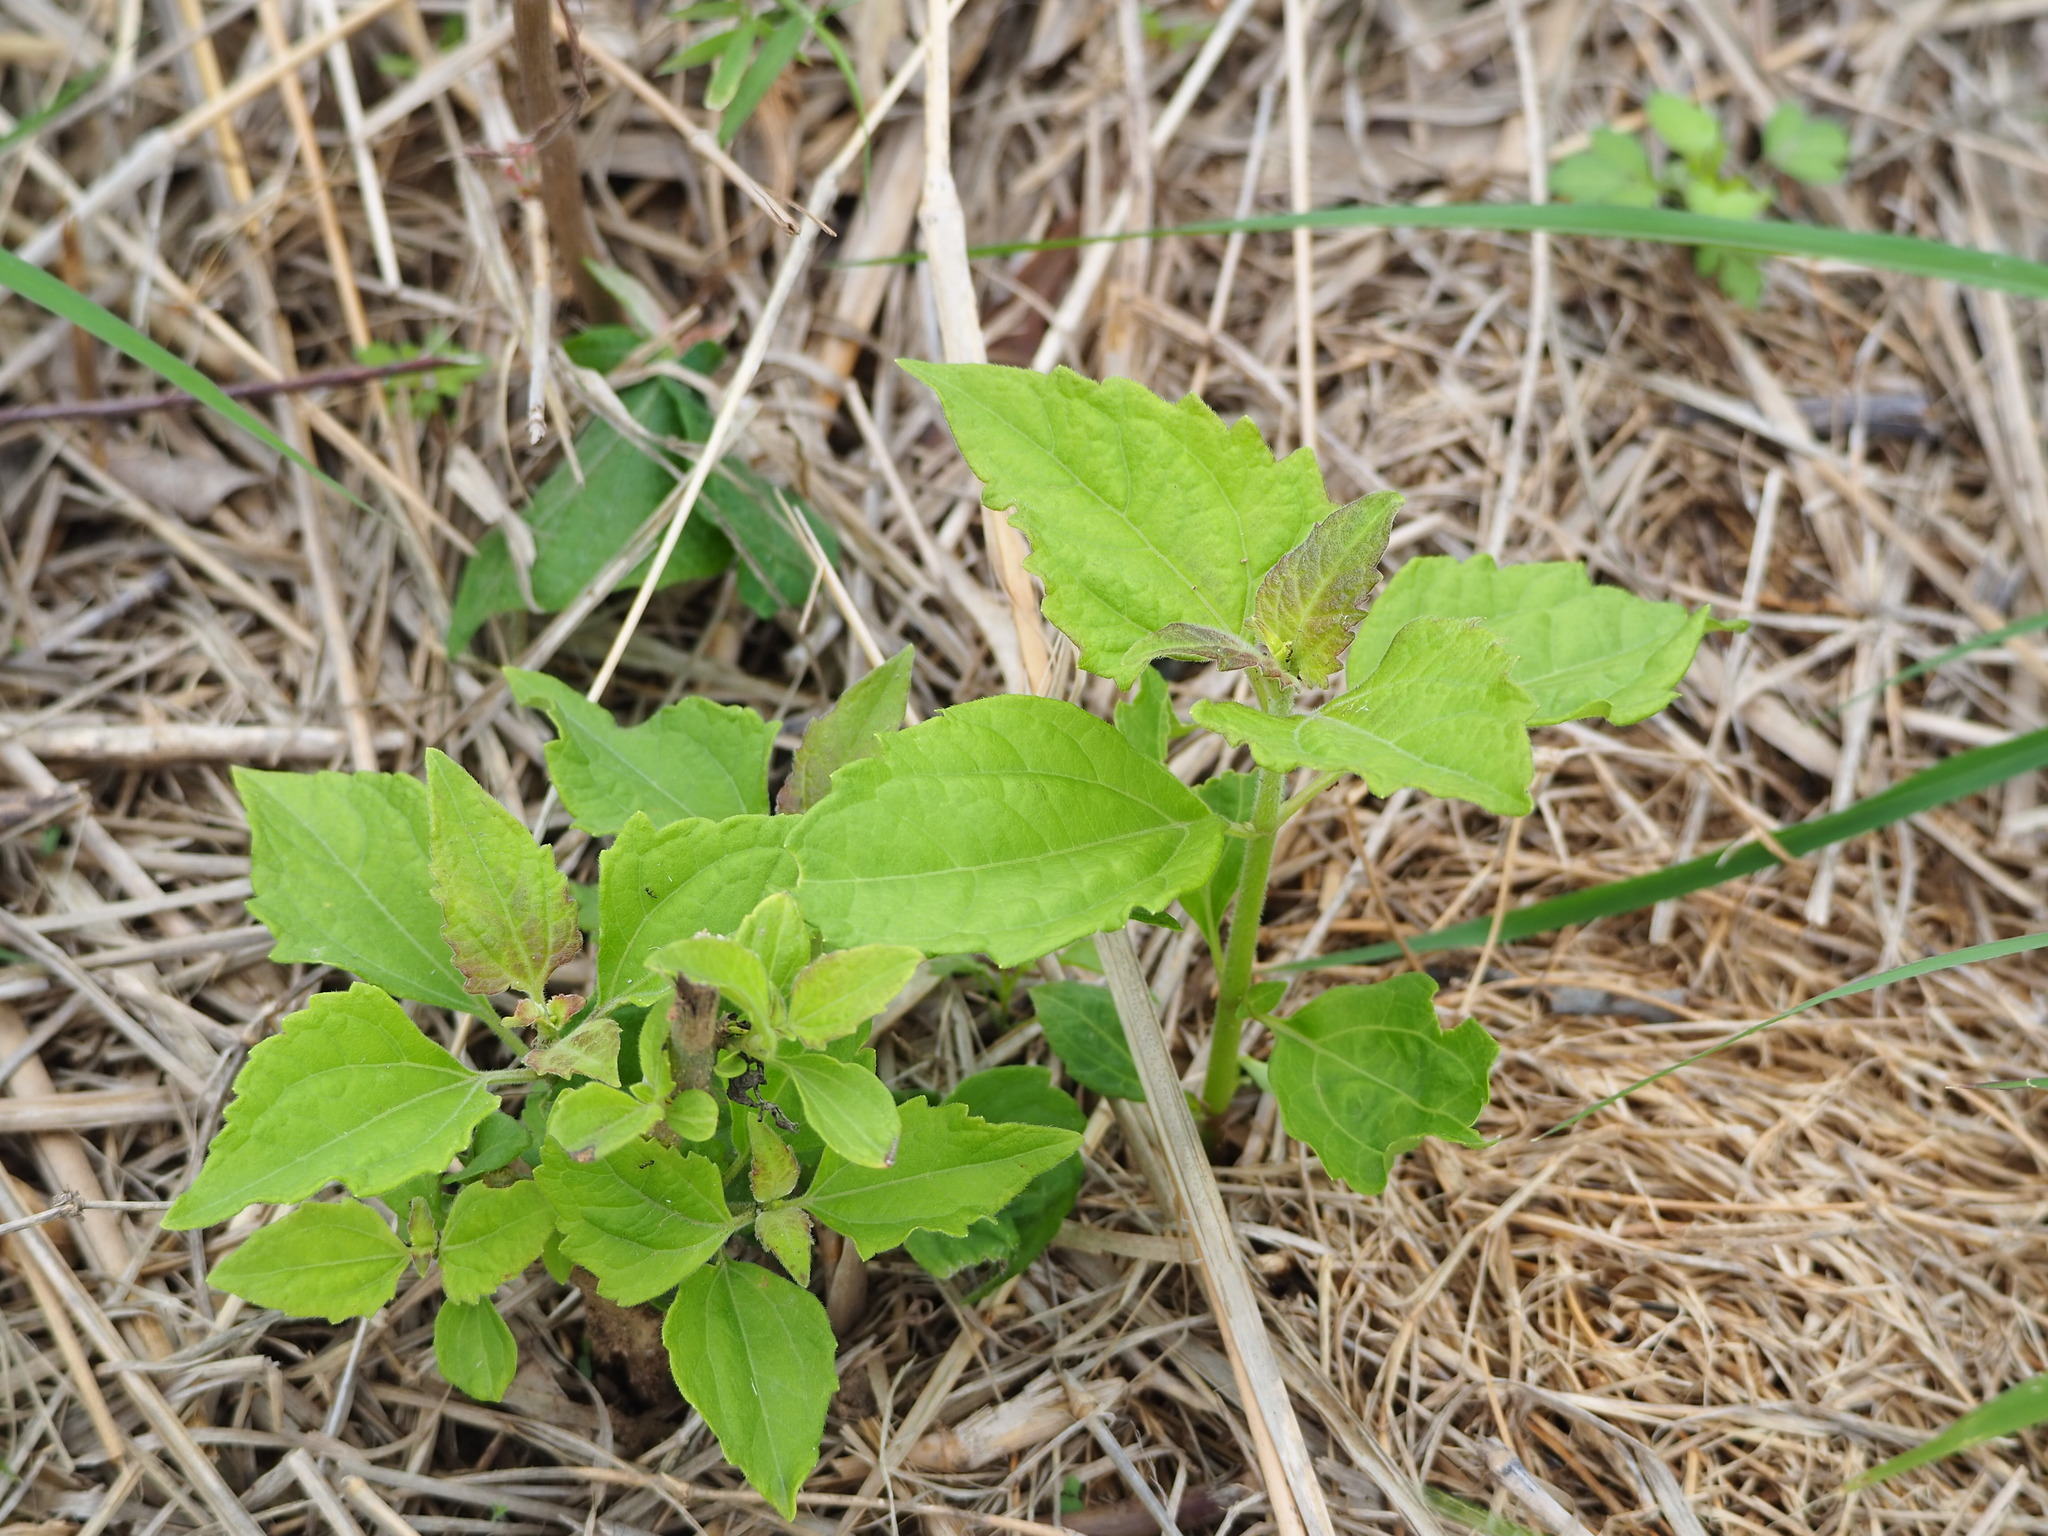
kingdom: Plantae
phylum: Tracheophyta
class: Magnoliopsida
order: Asterales
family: Asteraceae
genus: Chromolaena
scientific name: Chromolaena odorata
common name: Siamweed
